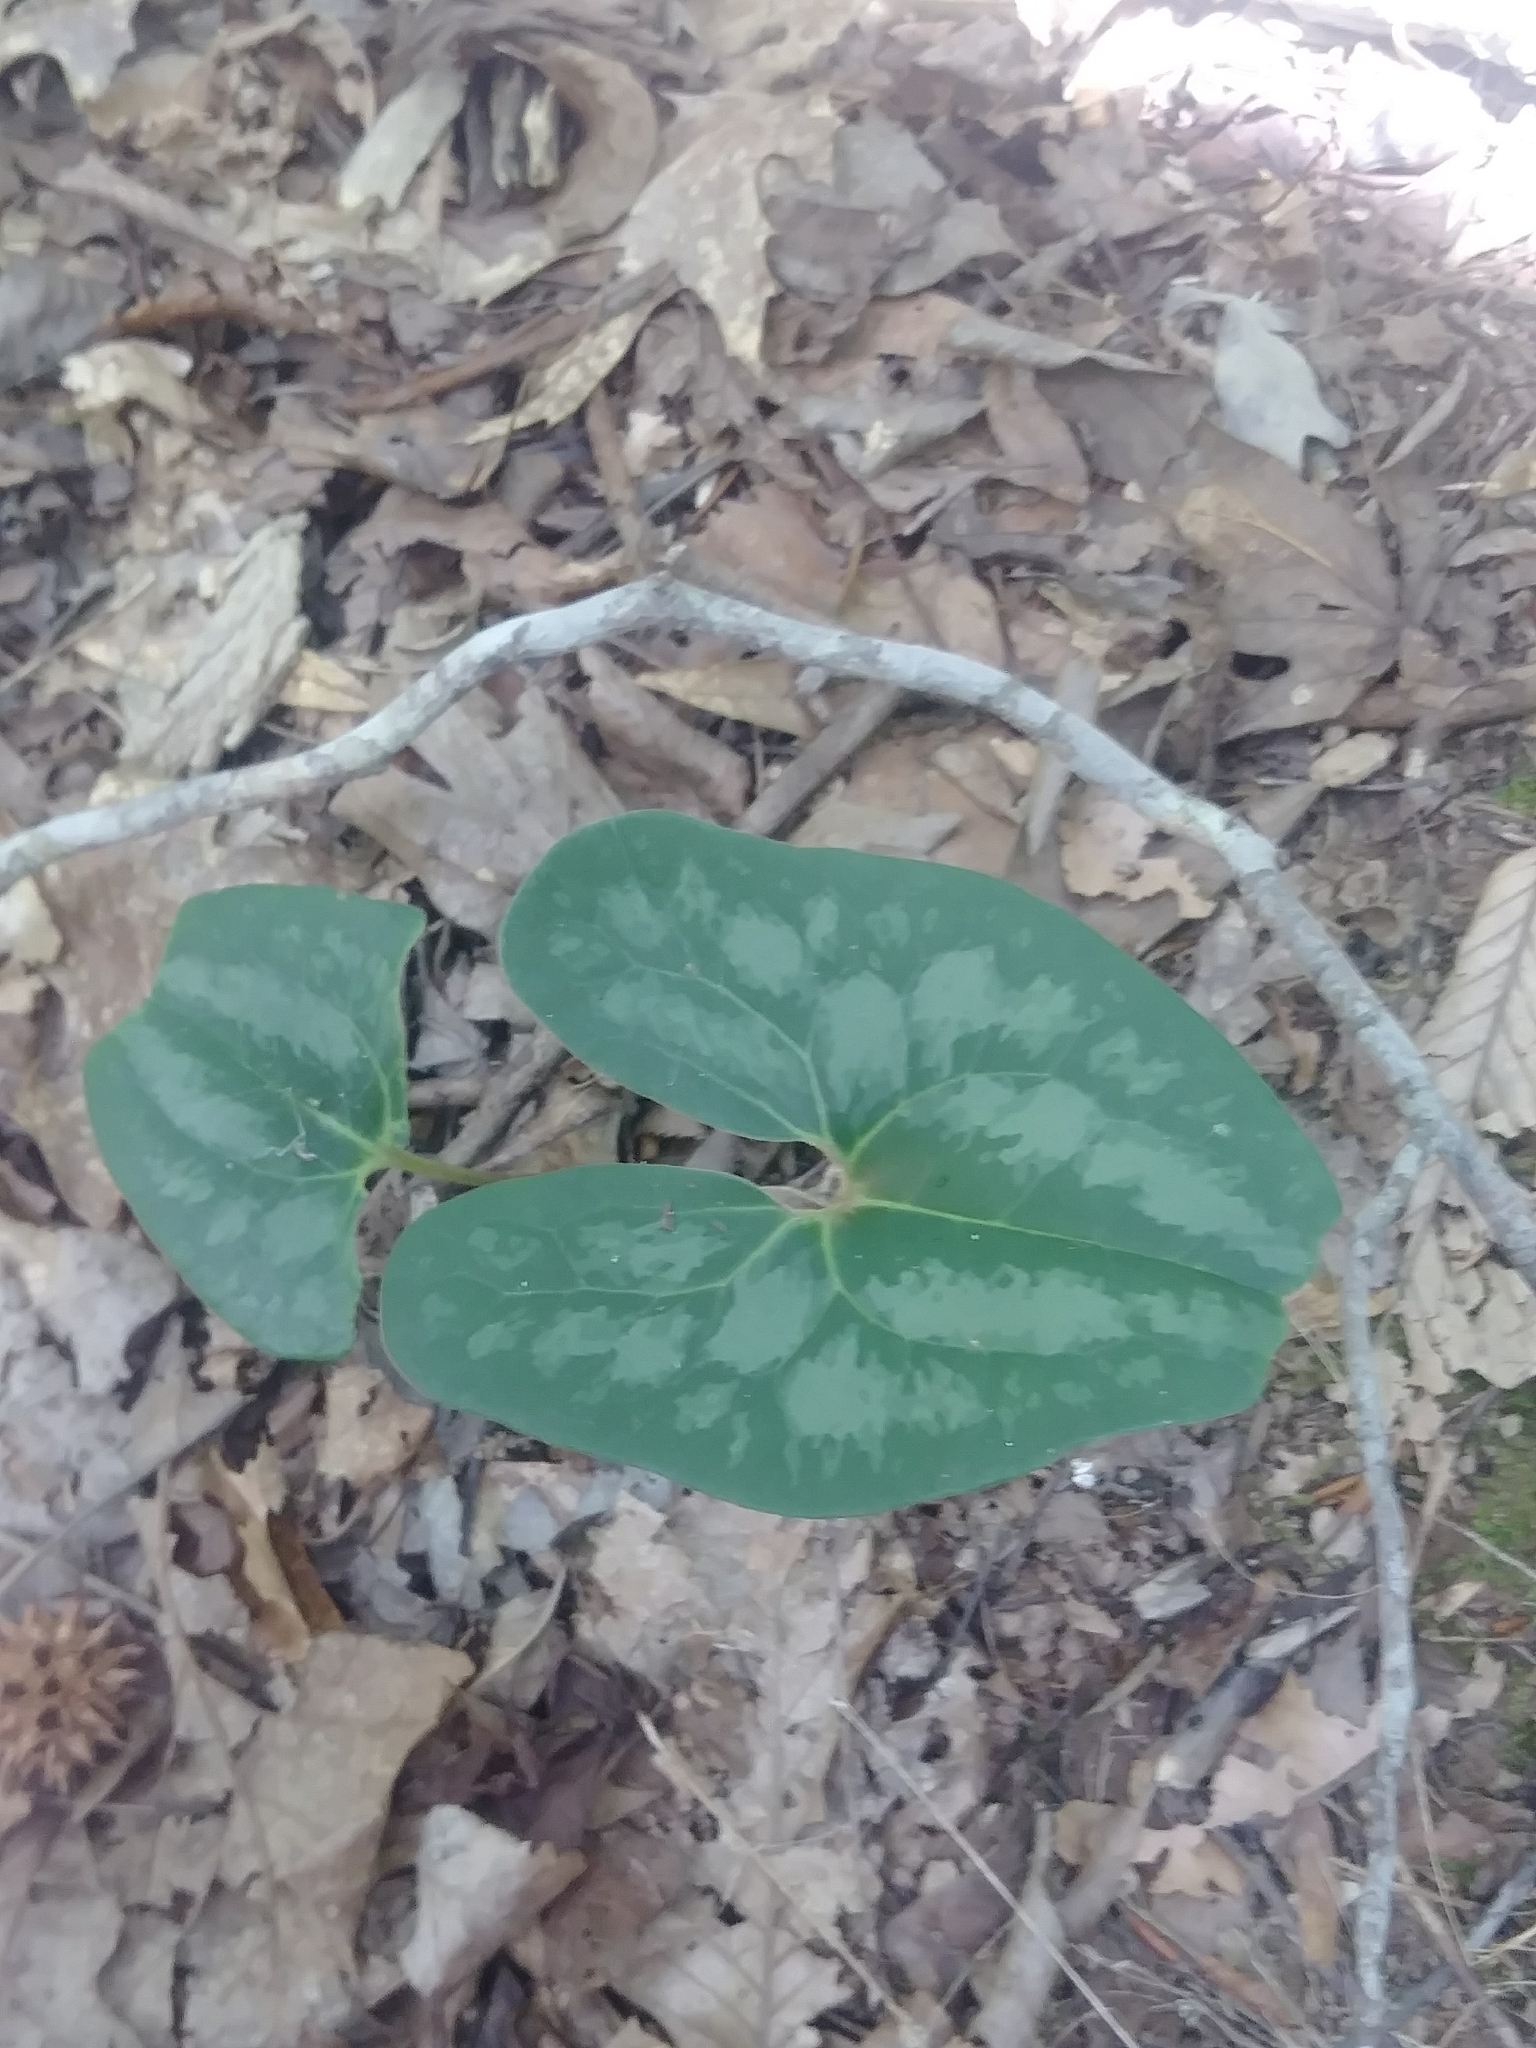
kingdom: Plantae
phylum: Tracheophyta
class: Magnoliopsida
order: Piperales
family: Aristolochiaceae
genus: Hexastylis
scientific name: Hexastylis arifolia
